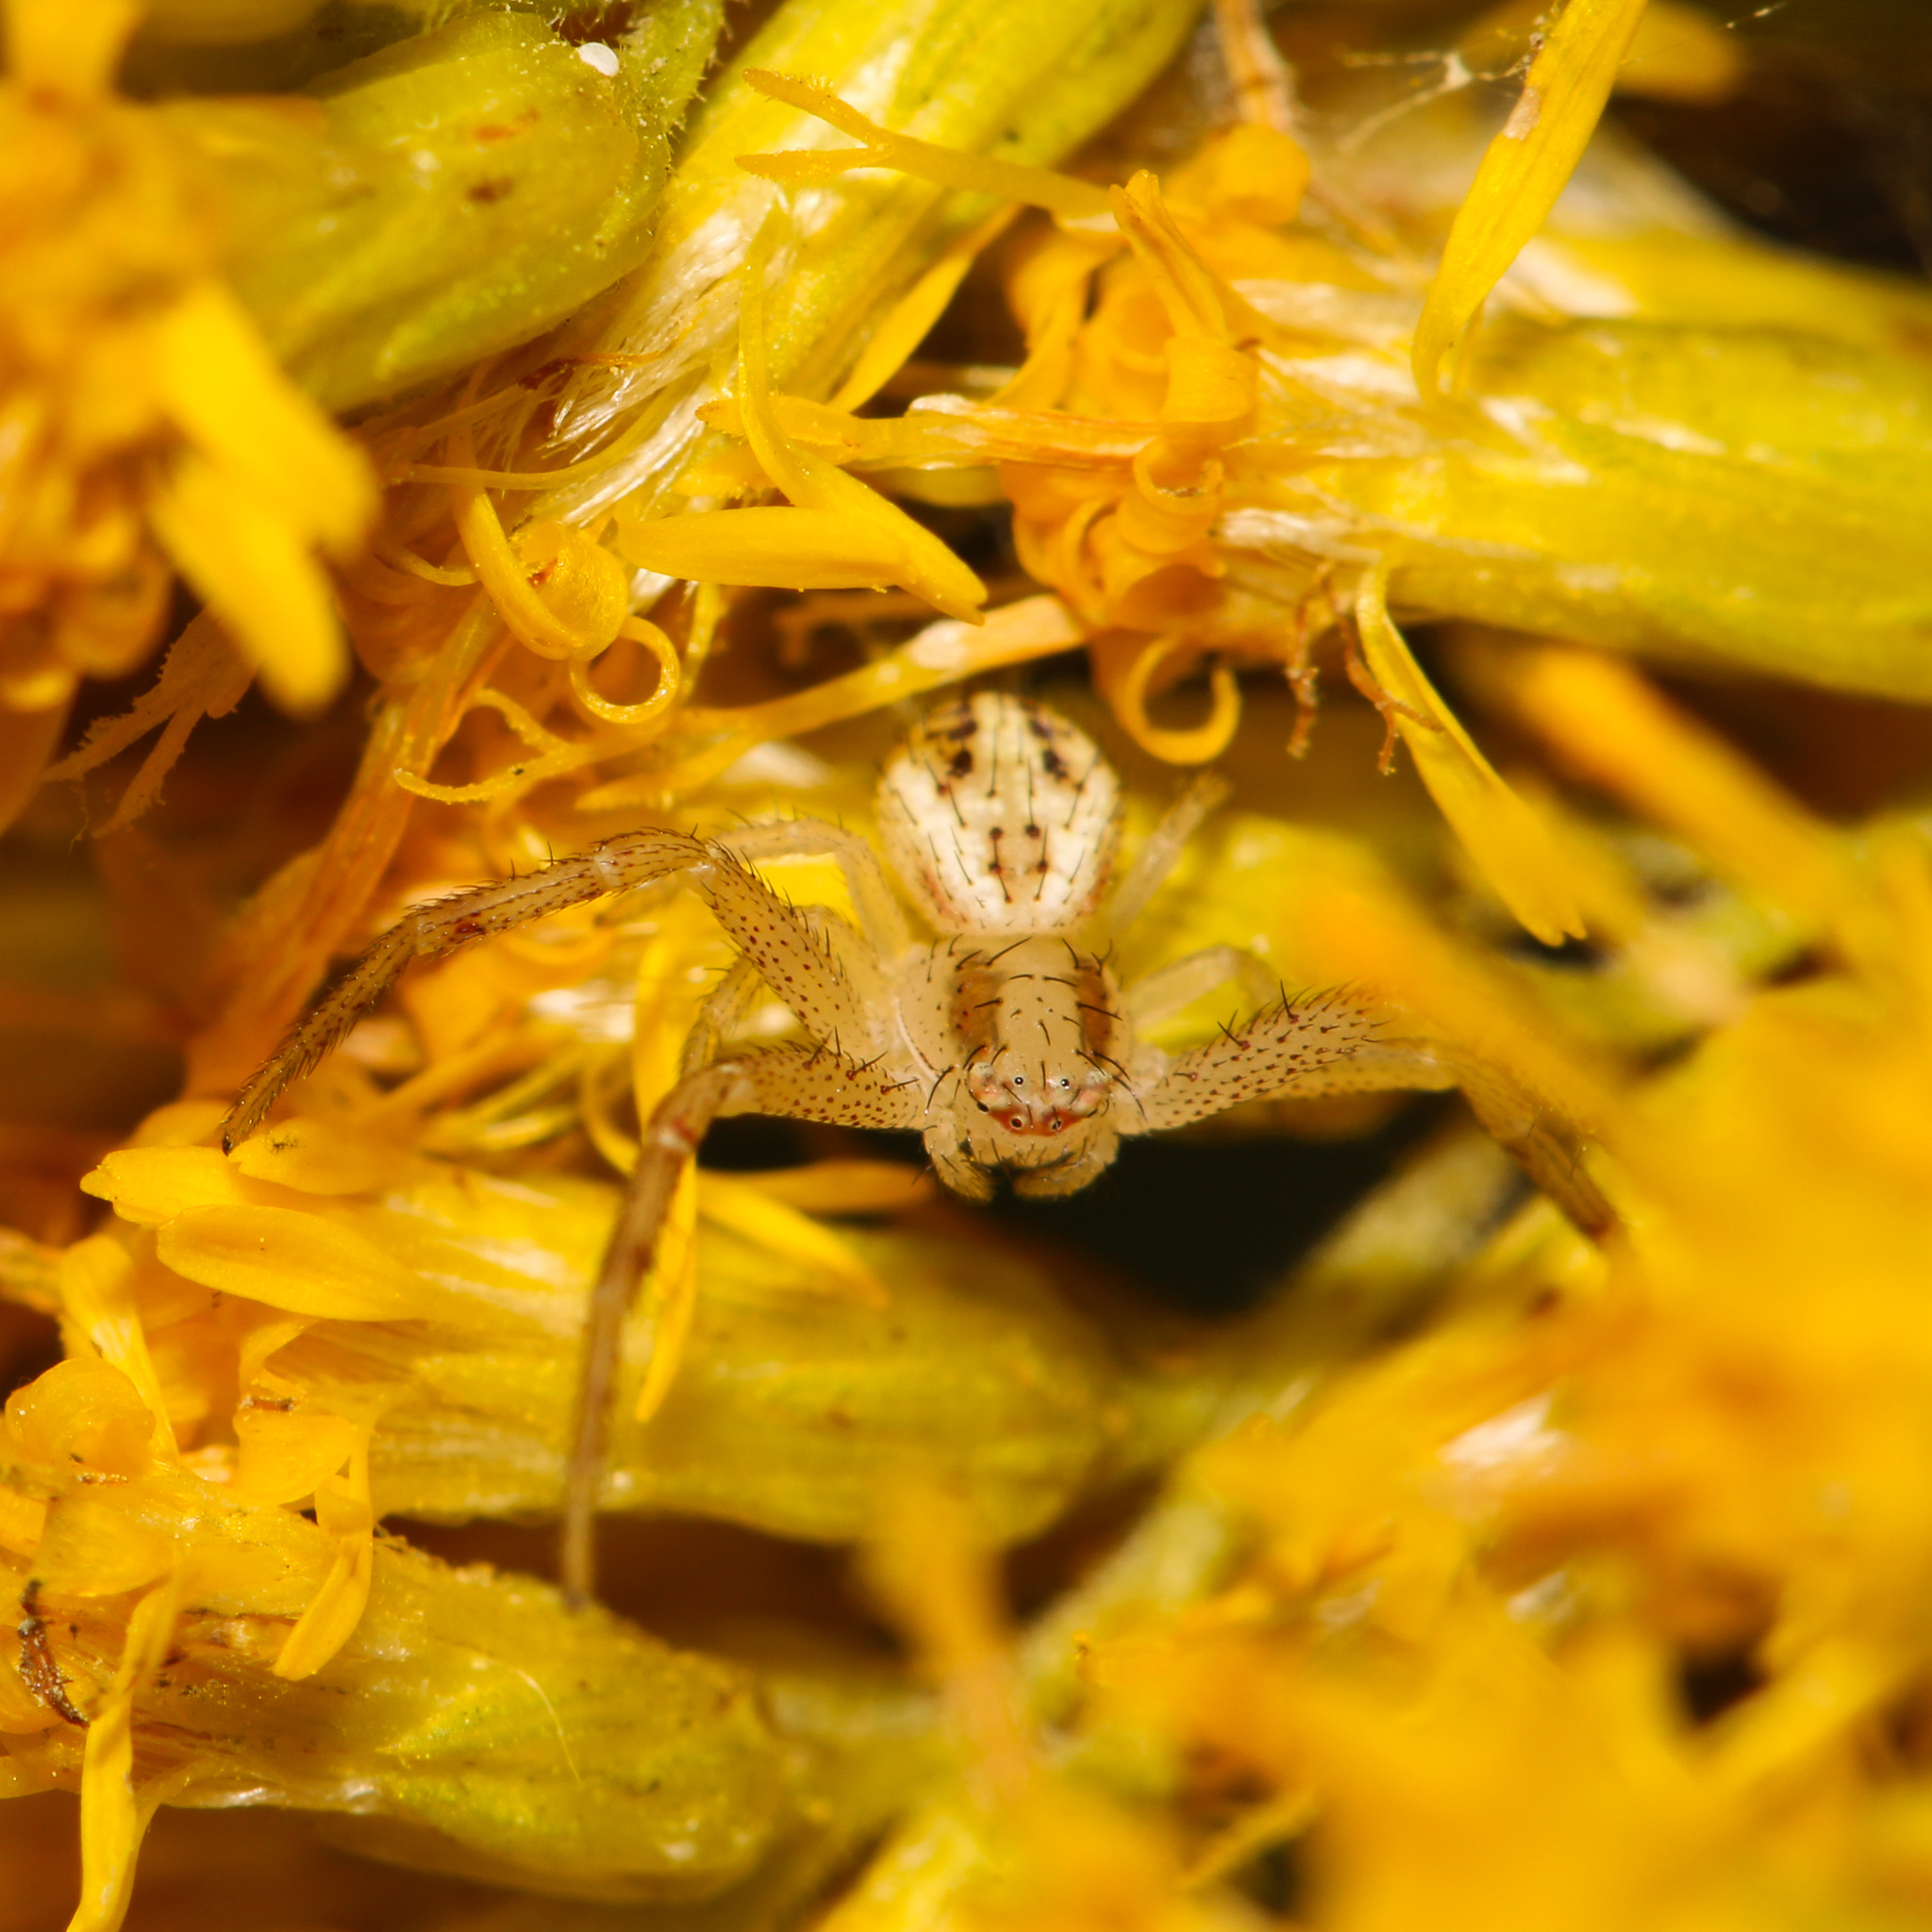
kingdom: Animalia
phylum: Arthropoda
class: Arachnida
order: Araneae
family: Thomisidae
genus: Mecaphesa
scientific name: Mecaphesa celer
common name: Crab spiders
